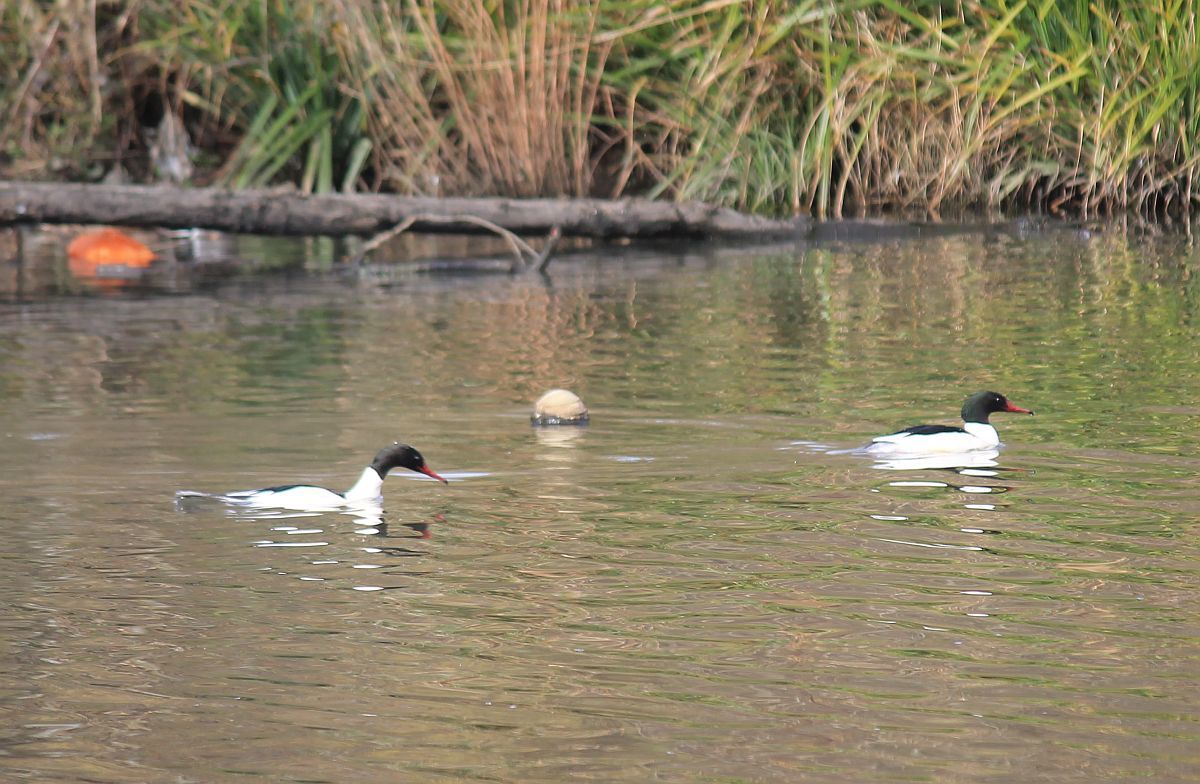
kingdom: Animalia
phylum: Chordata
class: Aves
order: Anseriformes
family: Anatidae
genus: Mergus
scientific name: Mergus merganser
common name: Common merganser
